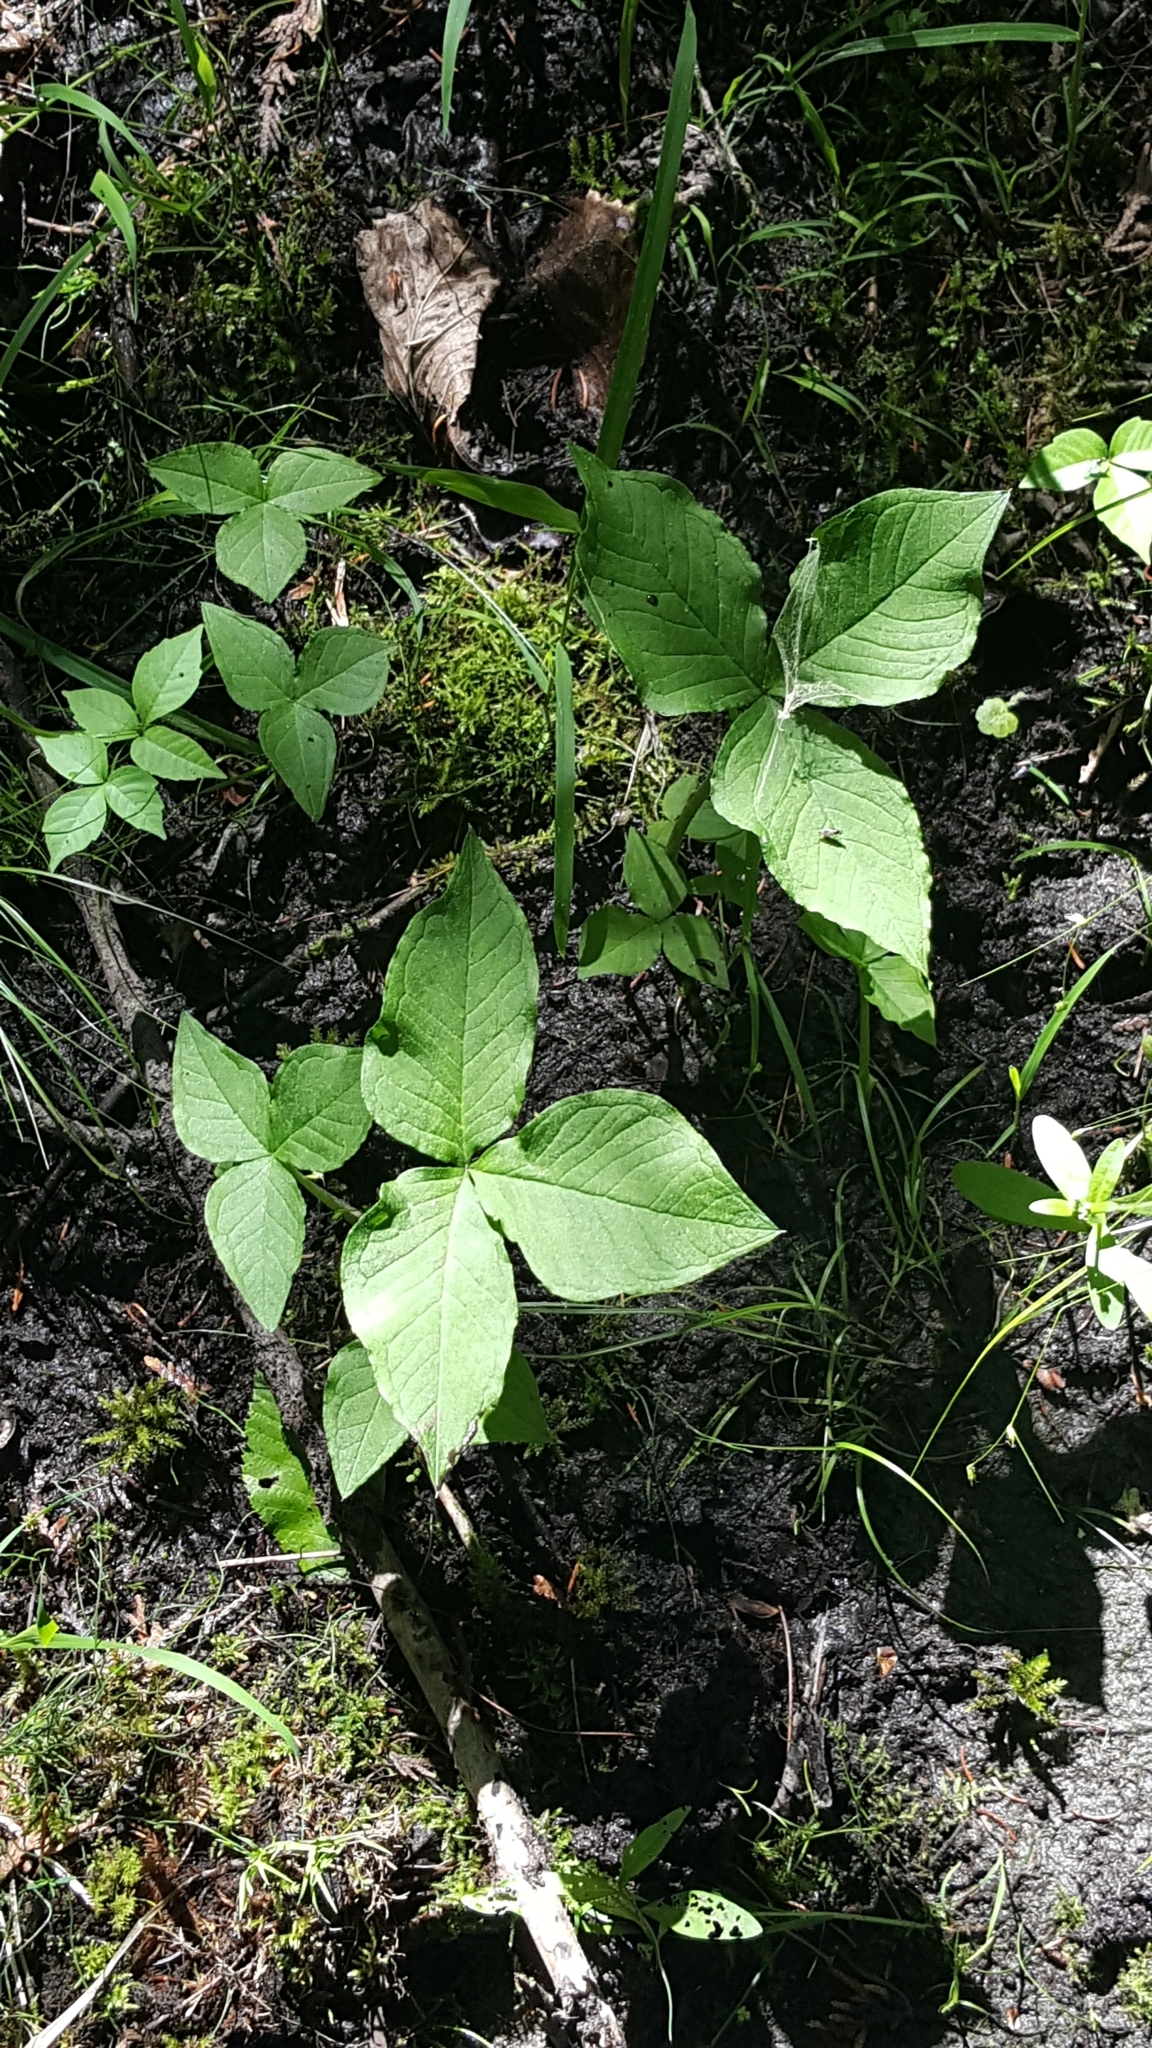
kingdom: Plantae
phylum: Tracheophyta
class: Liliopsida
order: Alismatales
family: Araceae
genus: Arisaema
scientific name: Arisaema triphyllum
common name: Jack-in-the-pulpit
